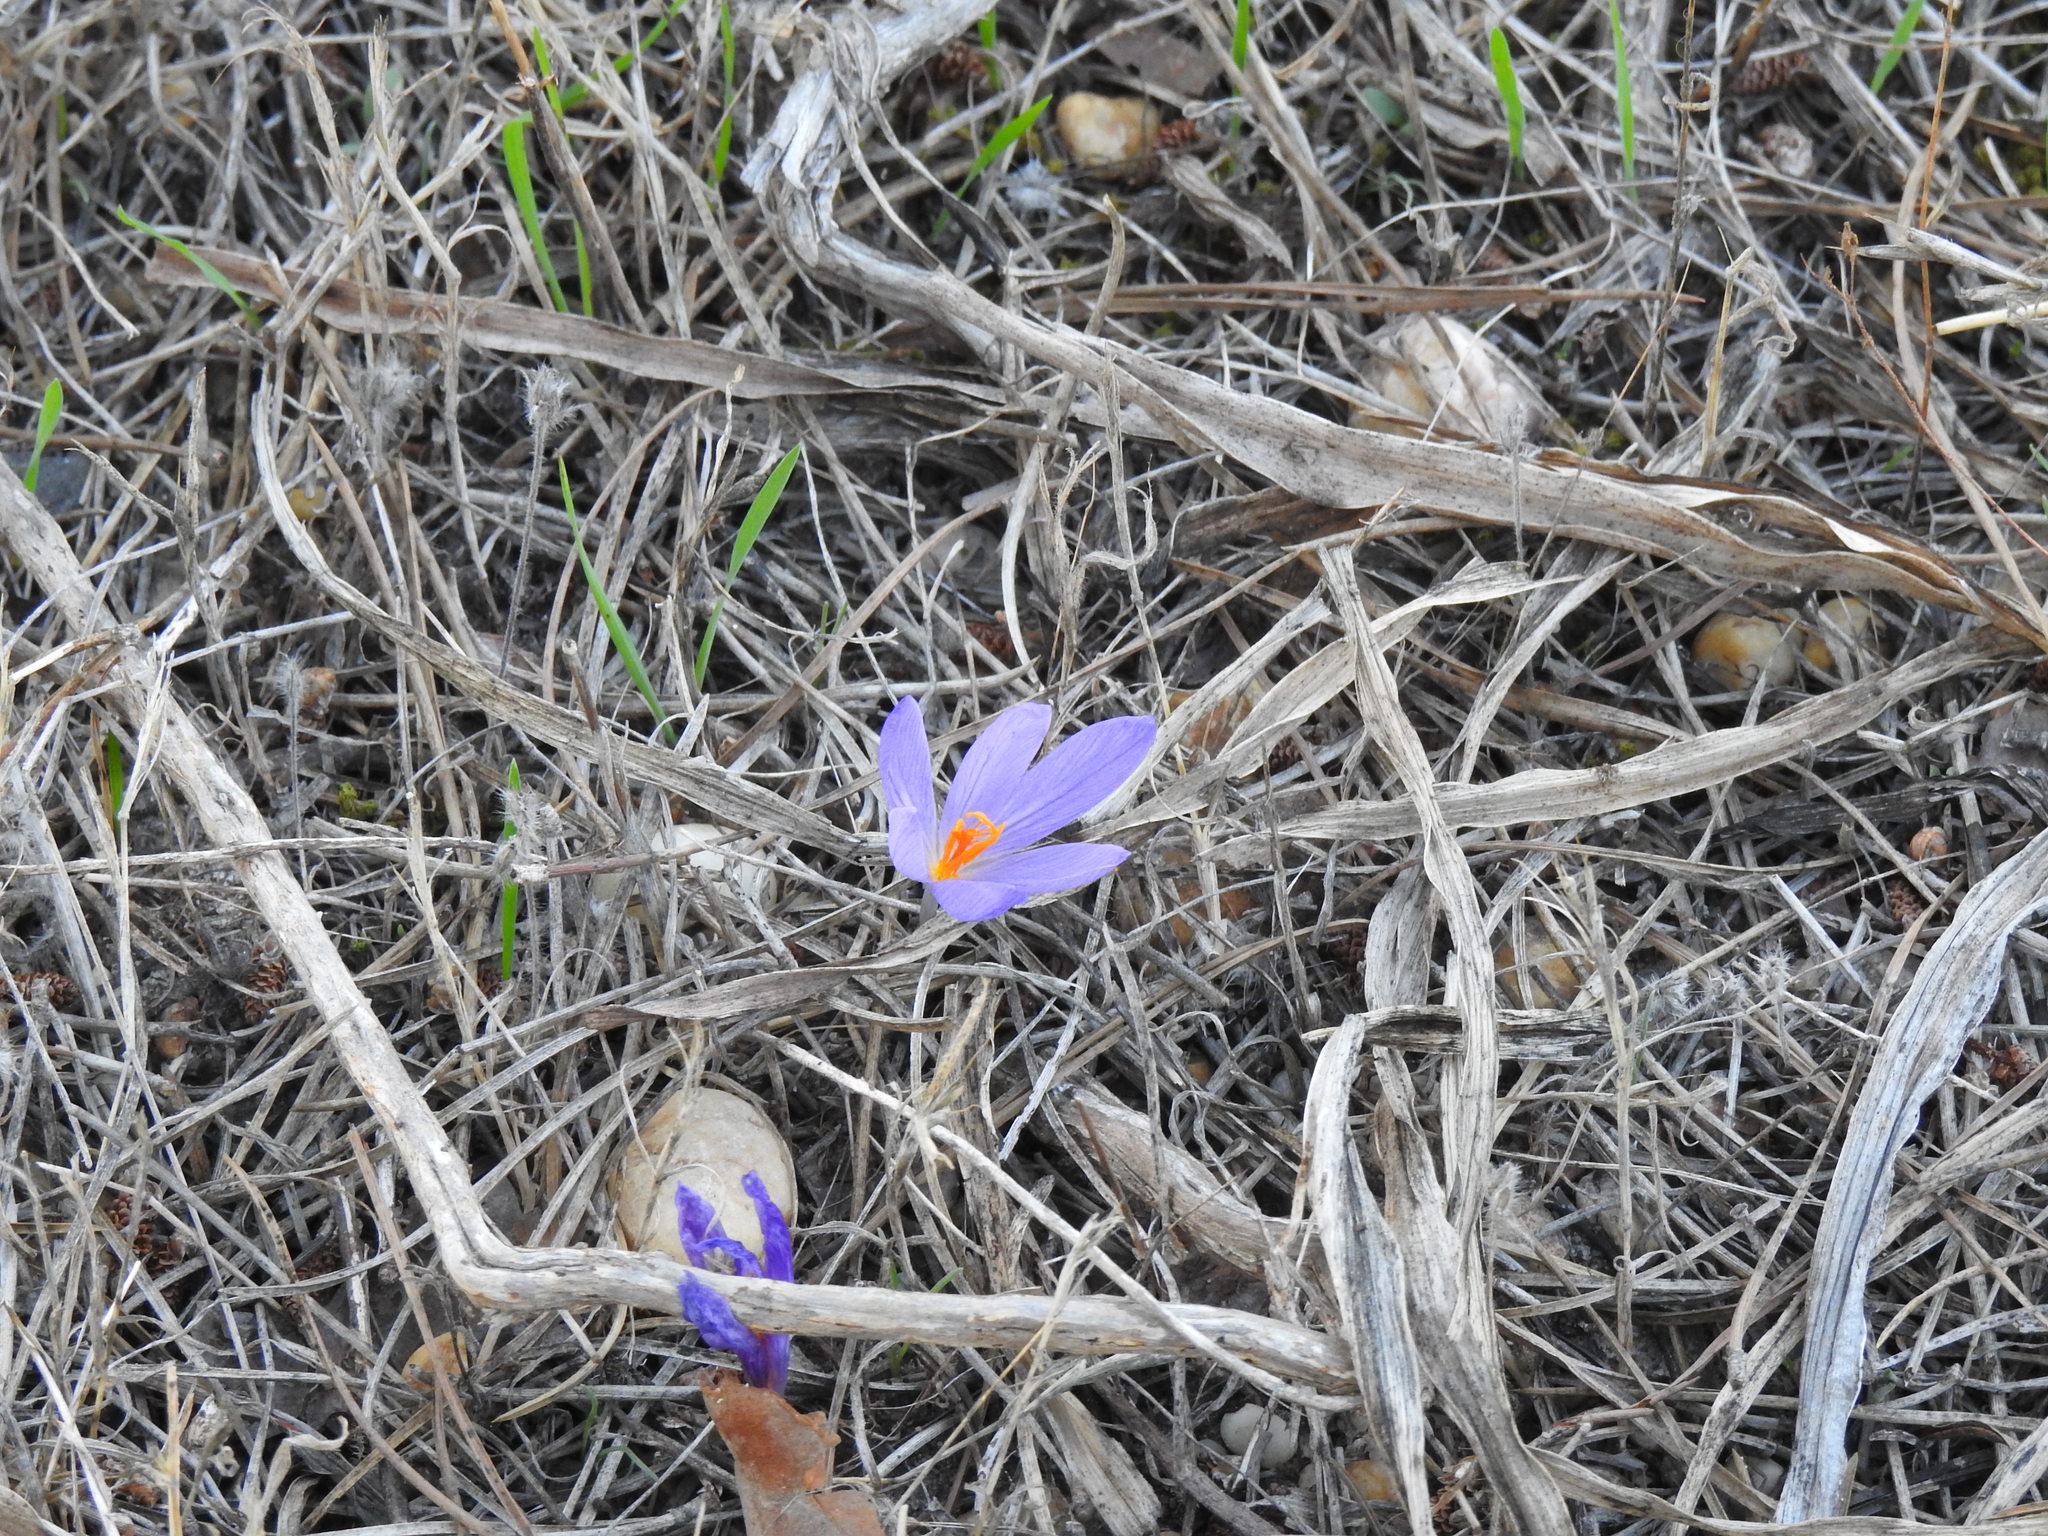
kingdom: Plantae
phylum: Tracheophyta
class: Liliopsida
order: Asparagales
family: Iridaceae
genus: Crocus
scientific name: Crocus serotinus
